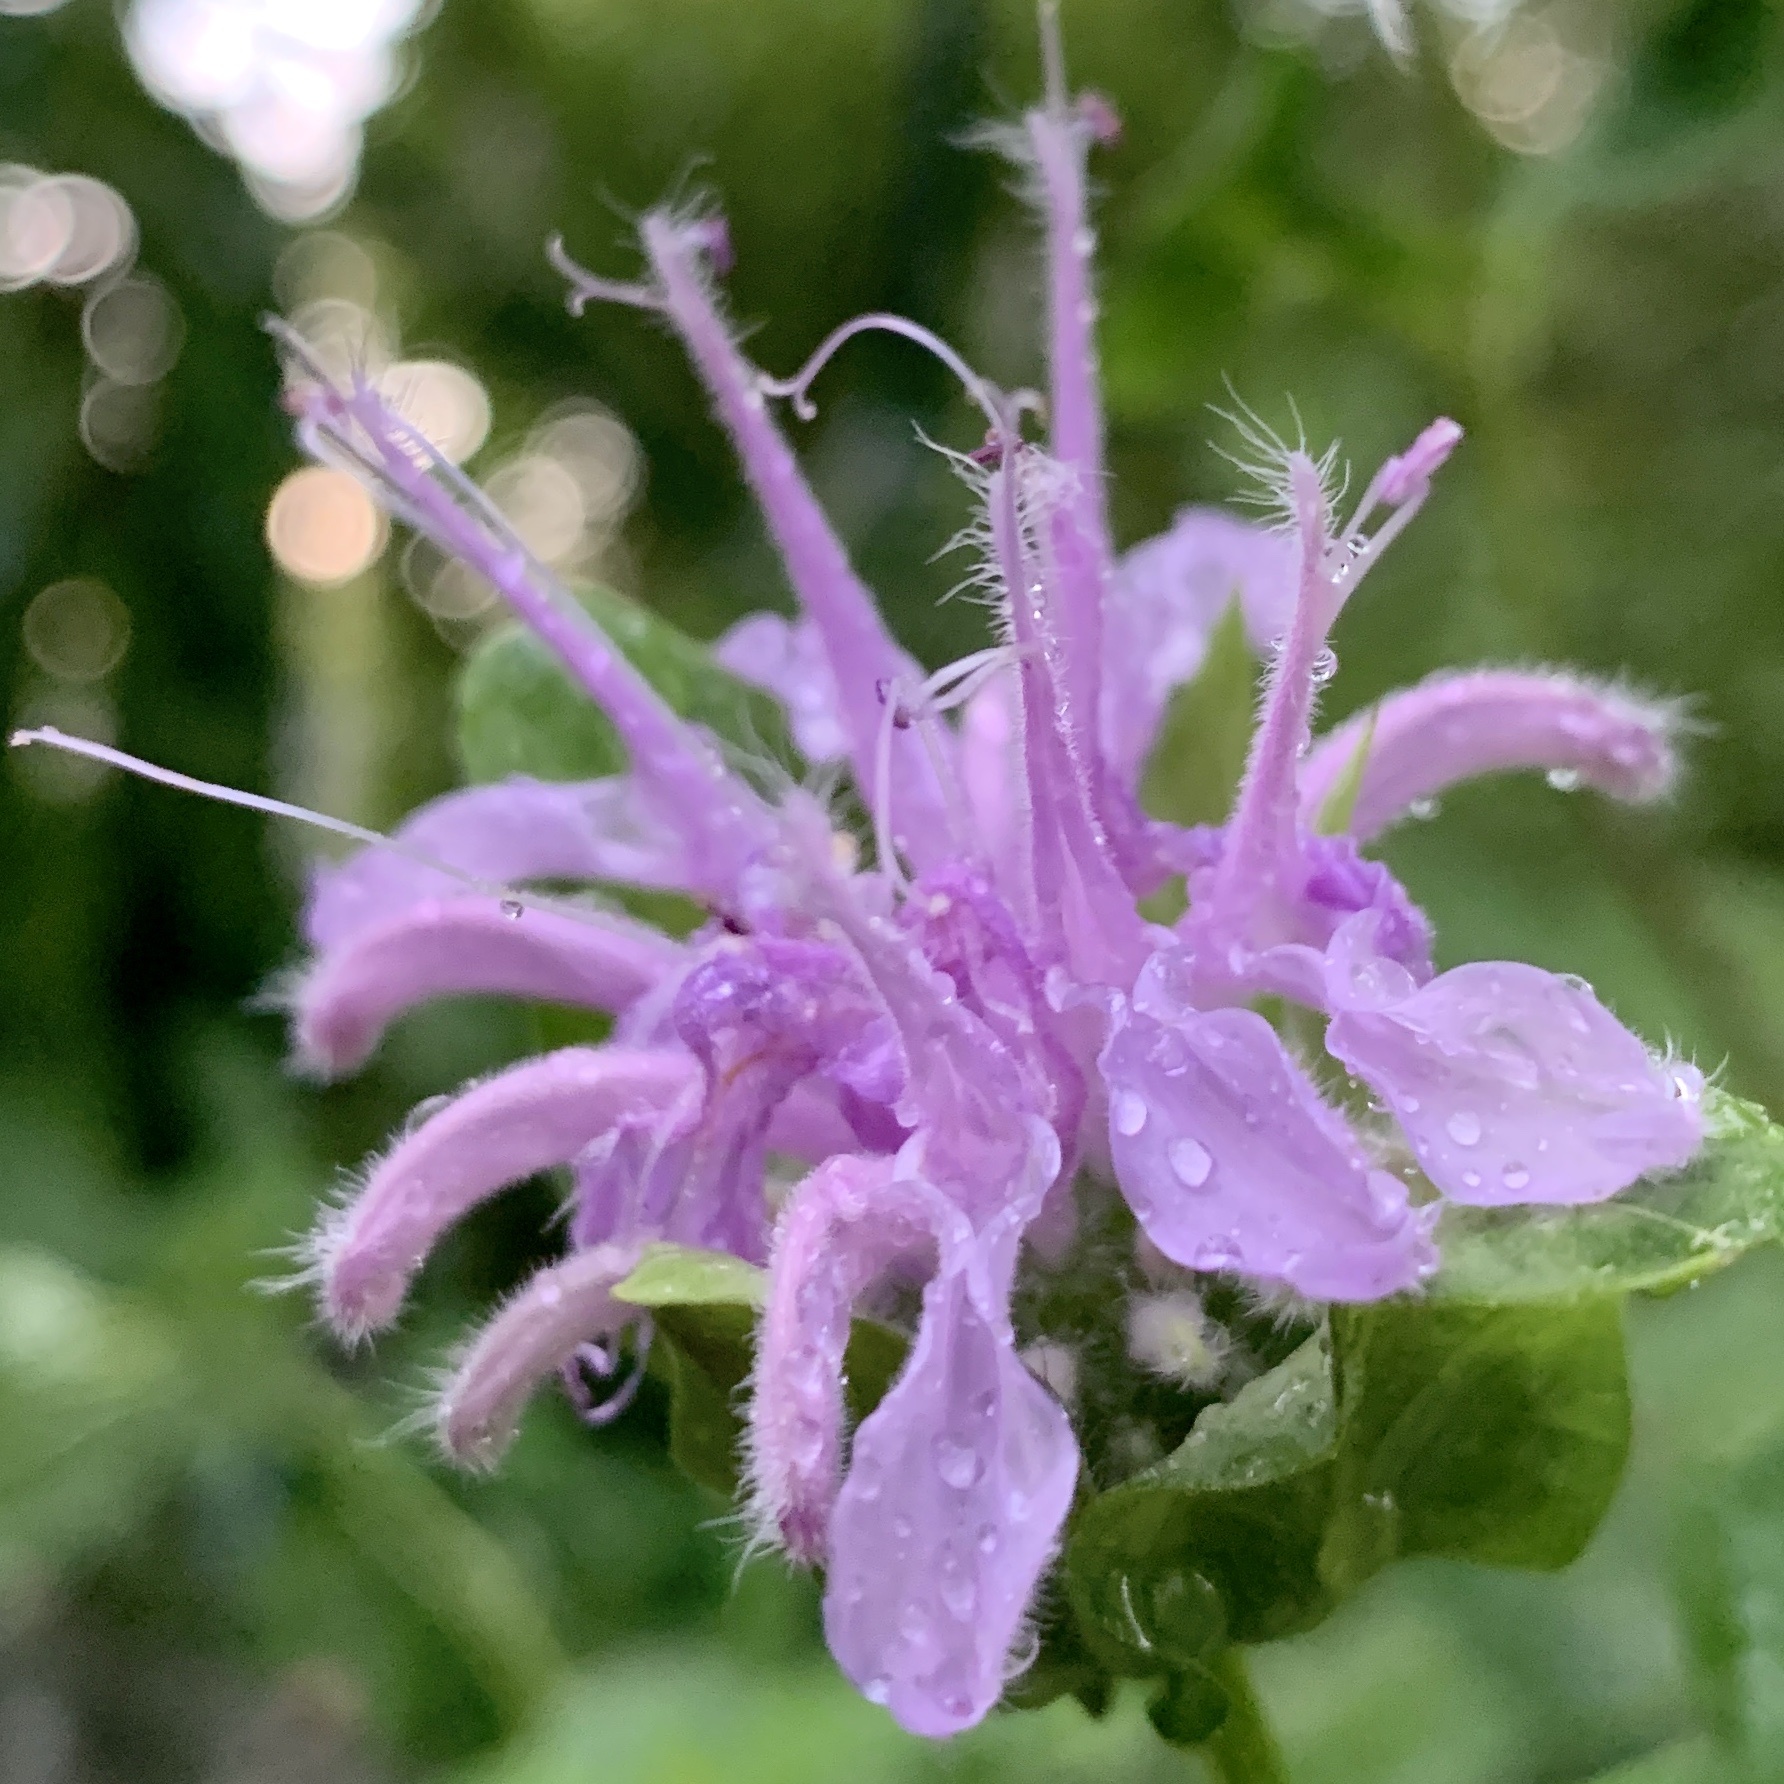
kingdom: Plantae
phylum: Tracheophyta
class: Magnoliopsida
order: Lamiales
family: Lamiaceae
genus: Monarda
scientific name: Monarda fistulosa
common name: Purple beebalm
